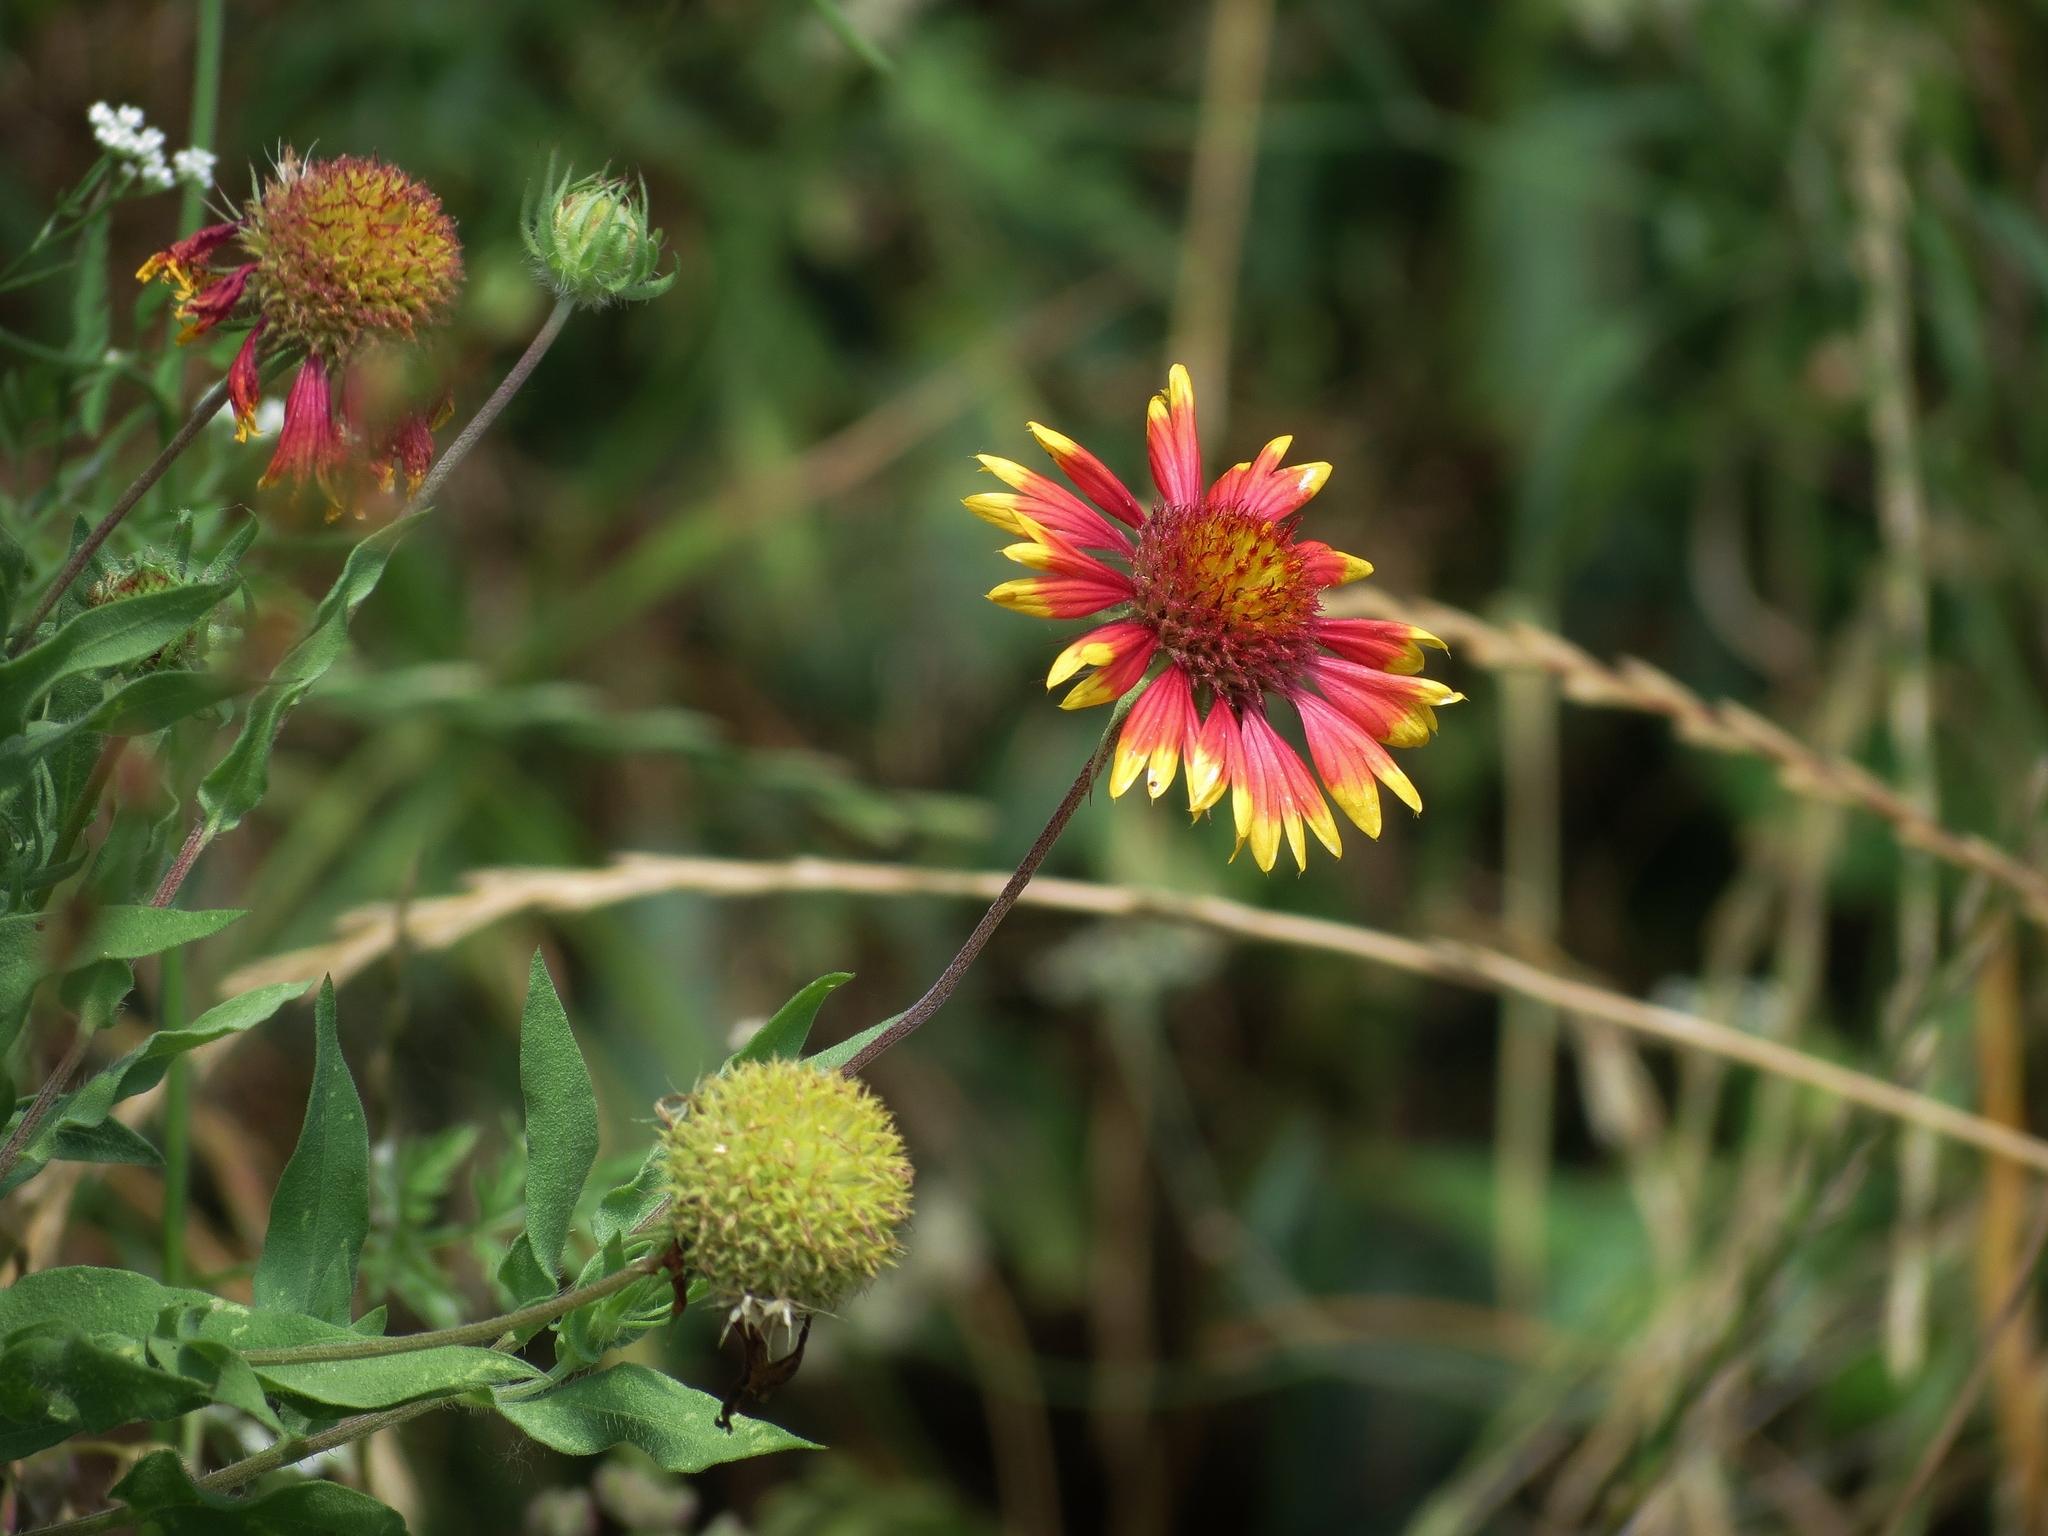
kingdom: Plantae
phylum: Tracheophyta
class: Magnoliopsida
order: Asterales
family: Asteraceae
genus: Gaillardia
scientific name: Gaillardia pulchella
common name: Firewheel
